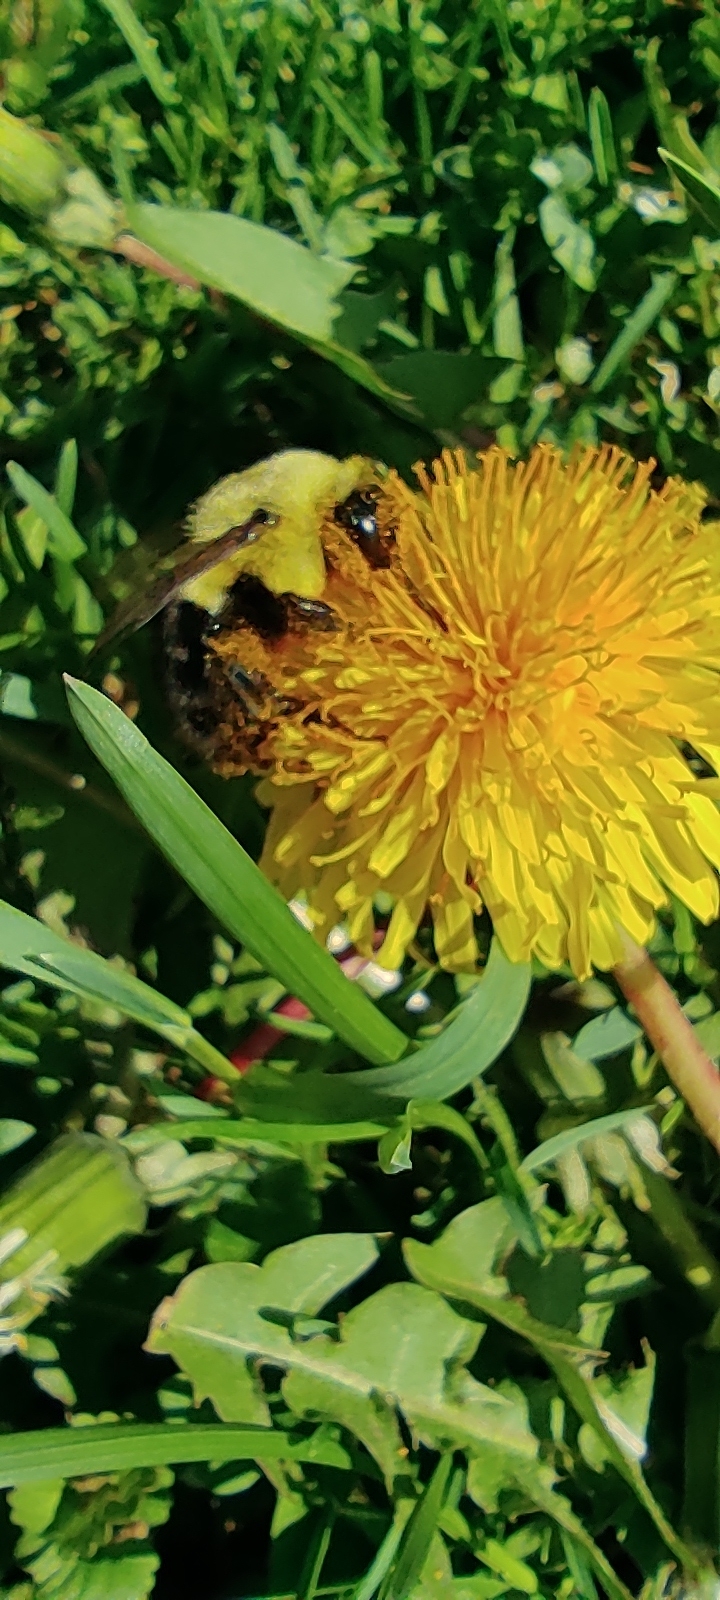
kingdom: Animalia
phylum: Arthropoda
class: Insecta
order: Hymenoptera
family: Apidae
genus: Bombus
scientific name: Bombus impatiens
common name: Common eastern bumble bee
